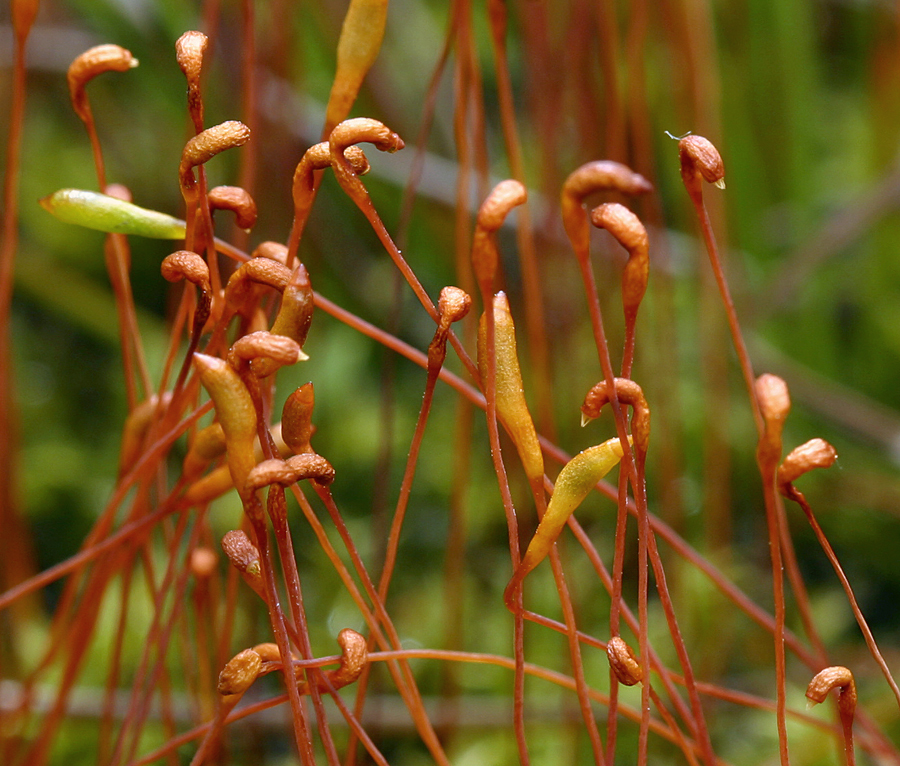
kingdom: Plantae
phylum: Bryophyta
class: Bryopsida
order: Splachnales
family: Meesiaceae
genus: Meesia
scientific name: Meesia triquetra
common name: Three-angled thread moss
